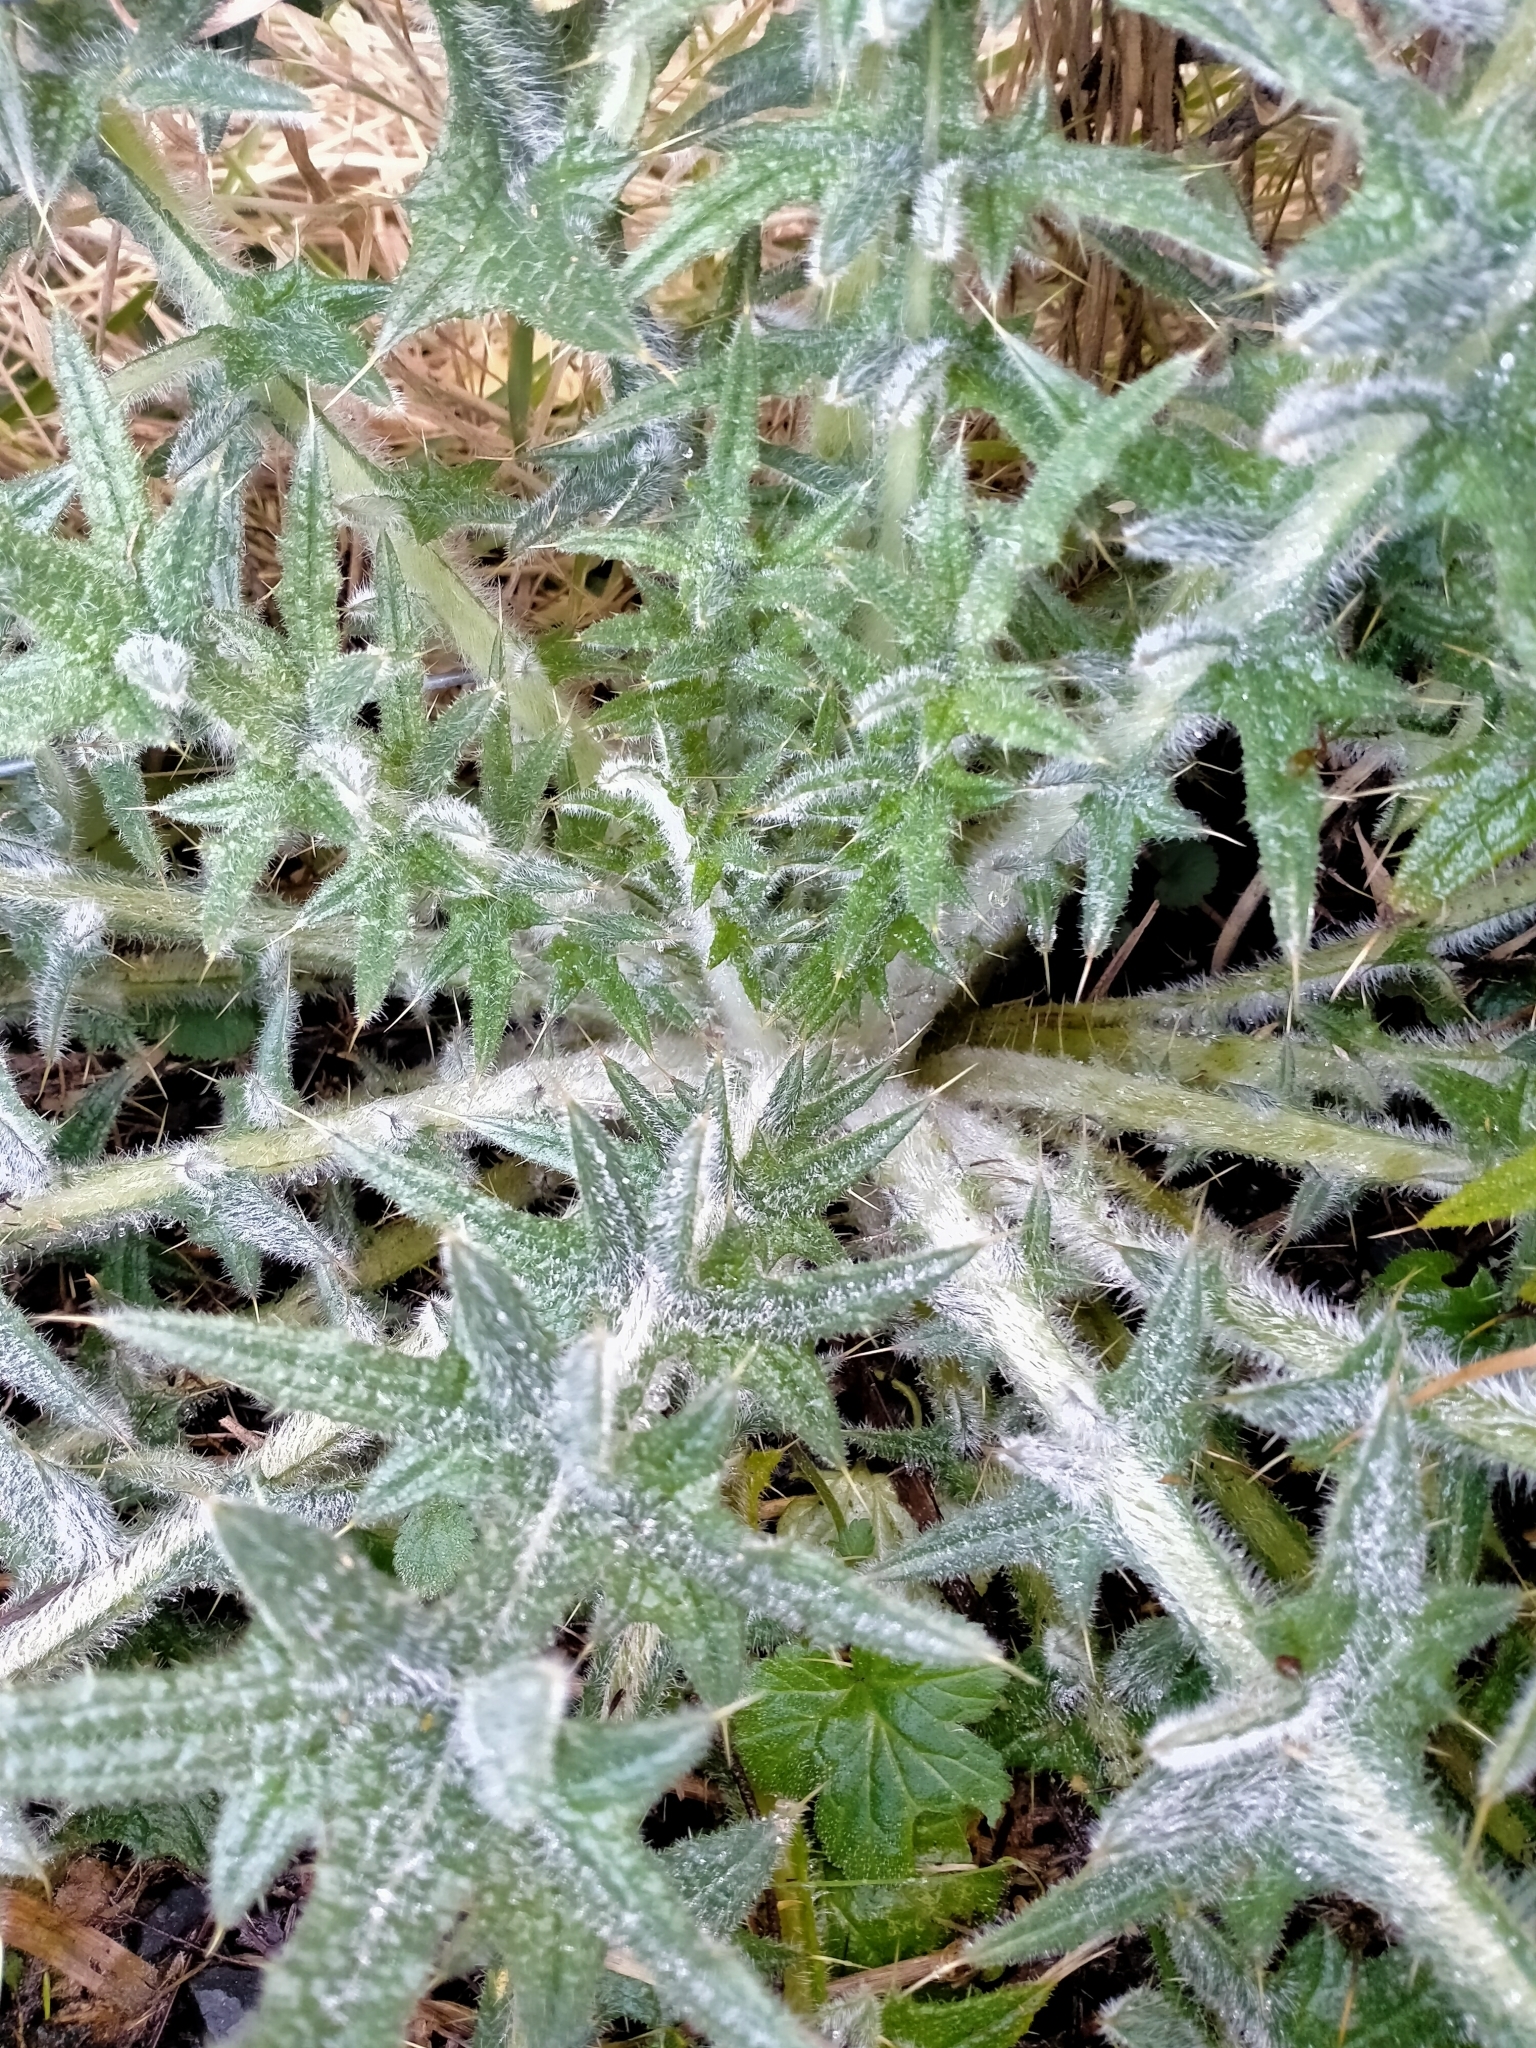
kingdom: Plantae
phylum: Tracheophyta
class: Magnoliopsida
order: Asterales
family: Asteraceae
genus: Cirsium
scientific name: Cirsium vulgare
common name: Bull thistle
